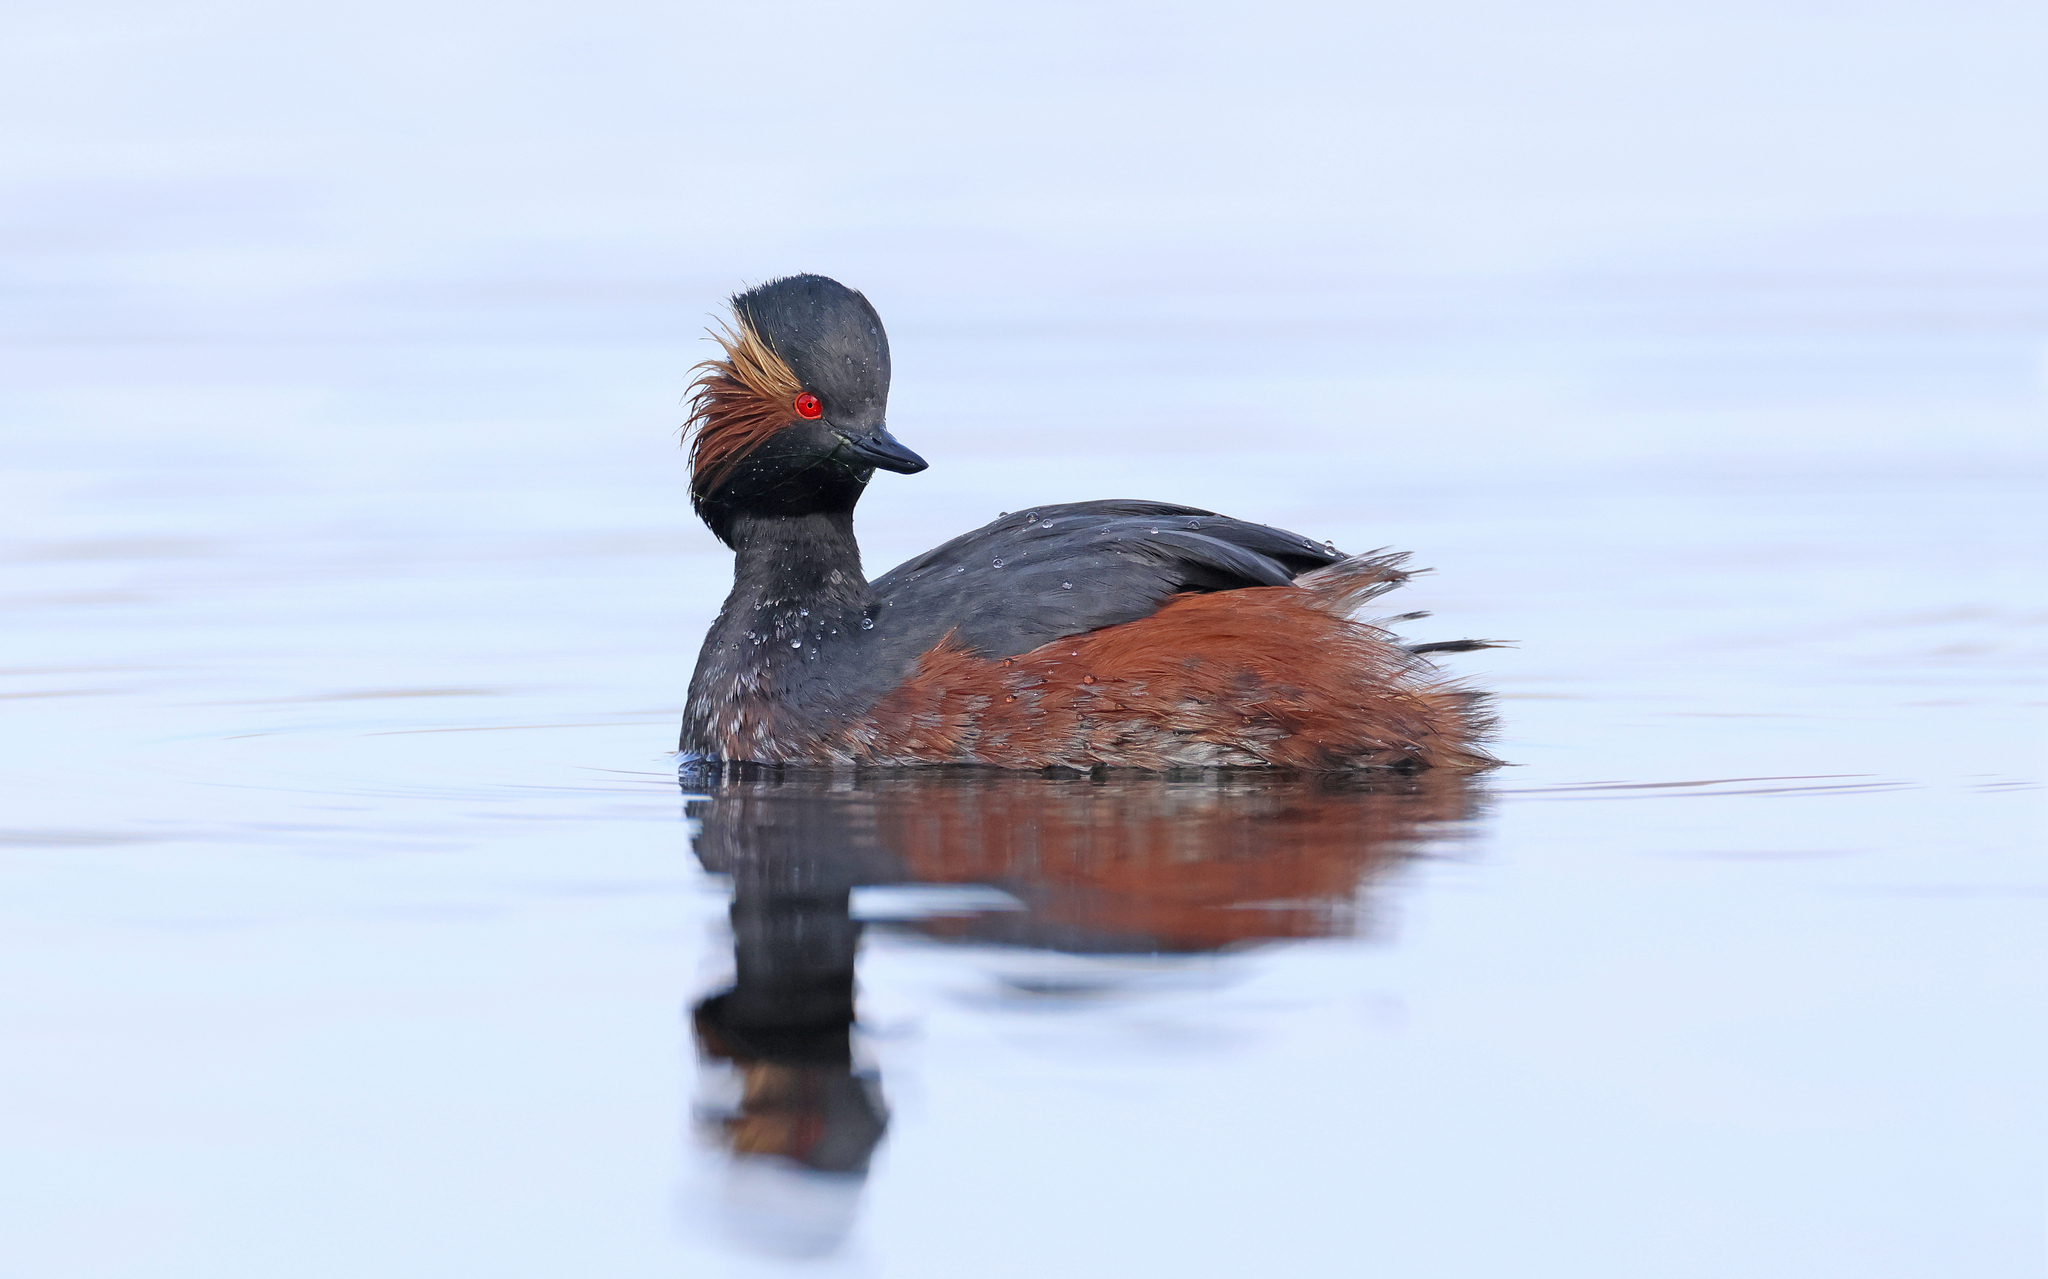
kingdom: Animalia
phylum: Chordata
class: Aves
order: Podicipediformes
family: Podicipedidae
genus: Podiceps
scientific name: Podiceps nigricollis
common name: Black-necked grebe
